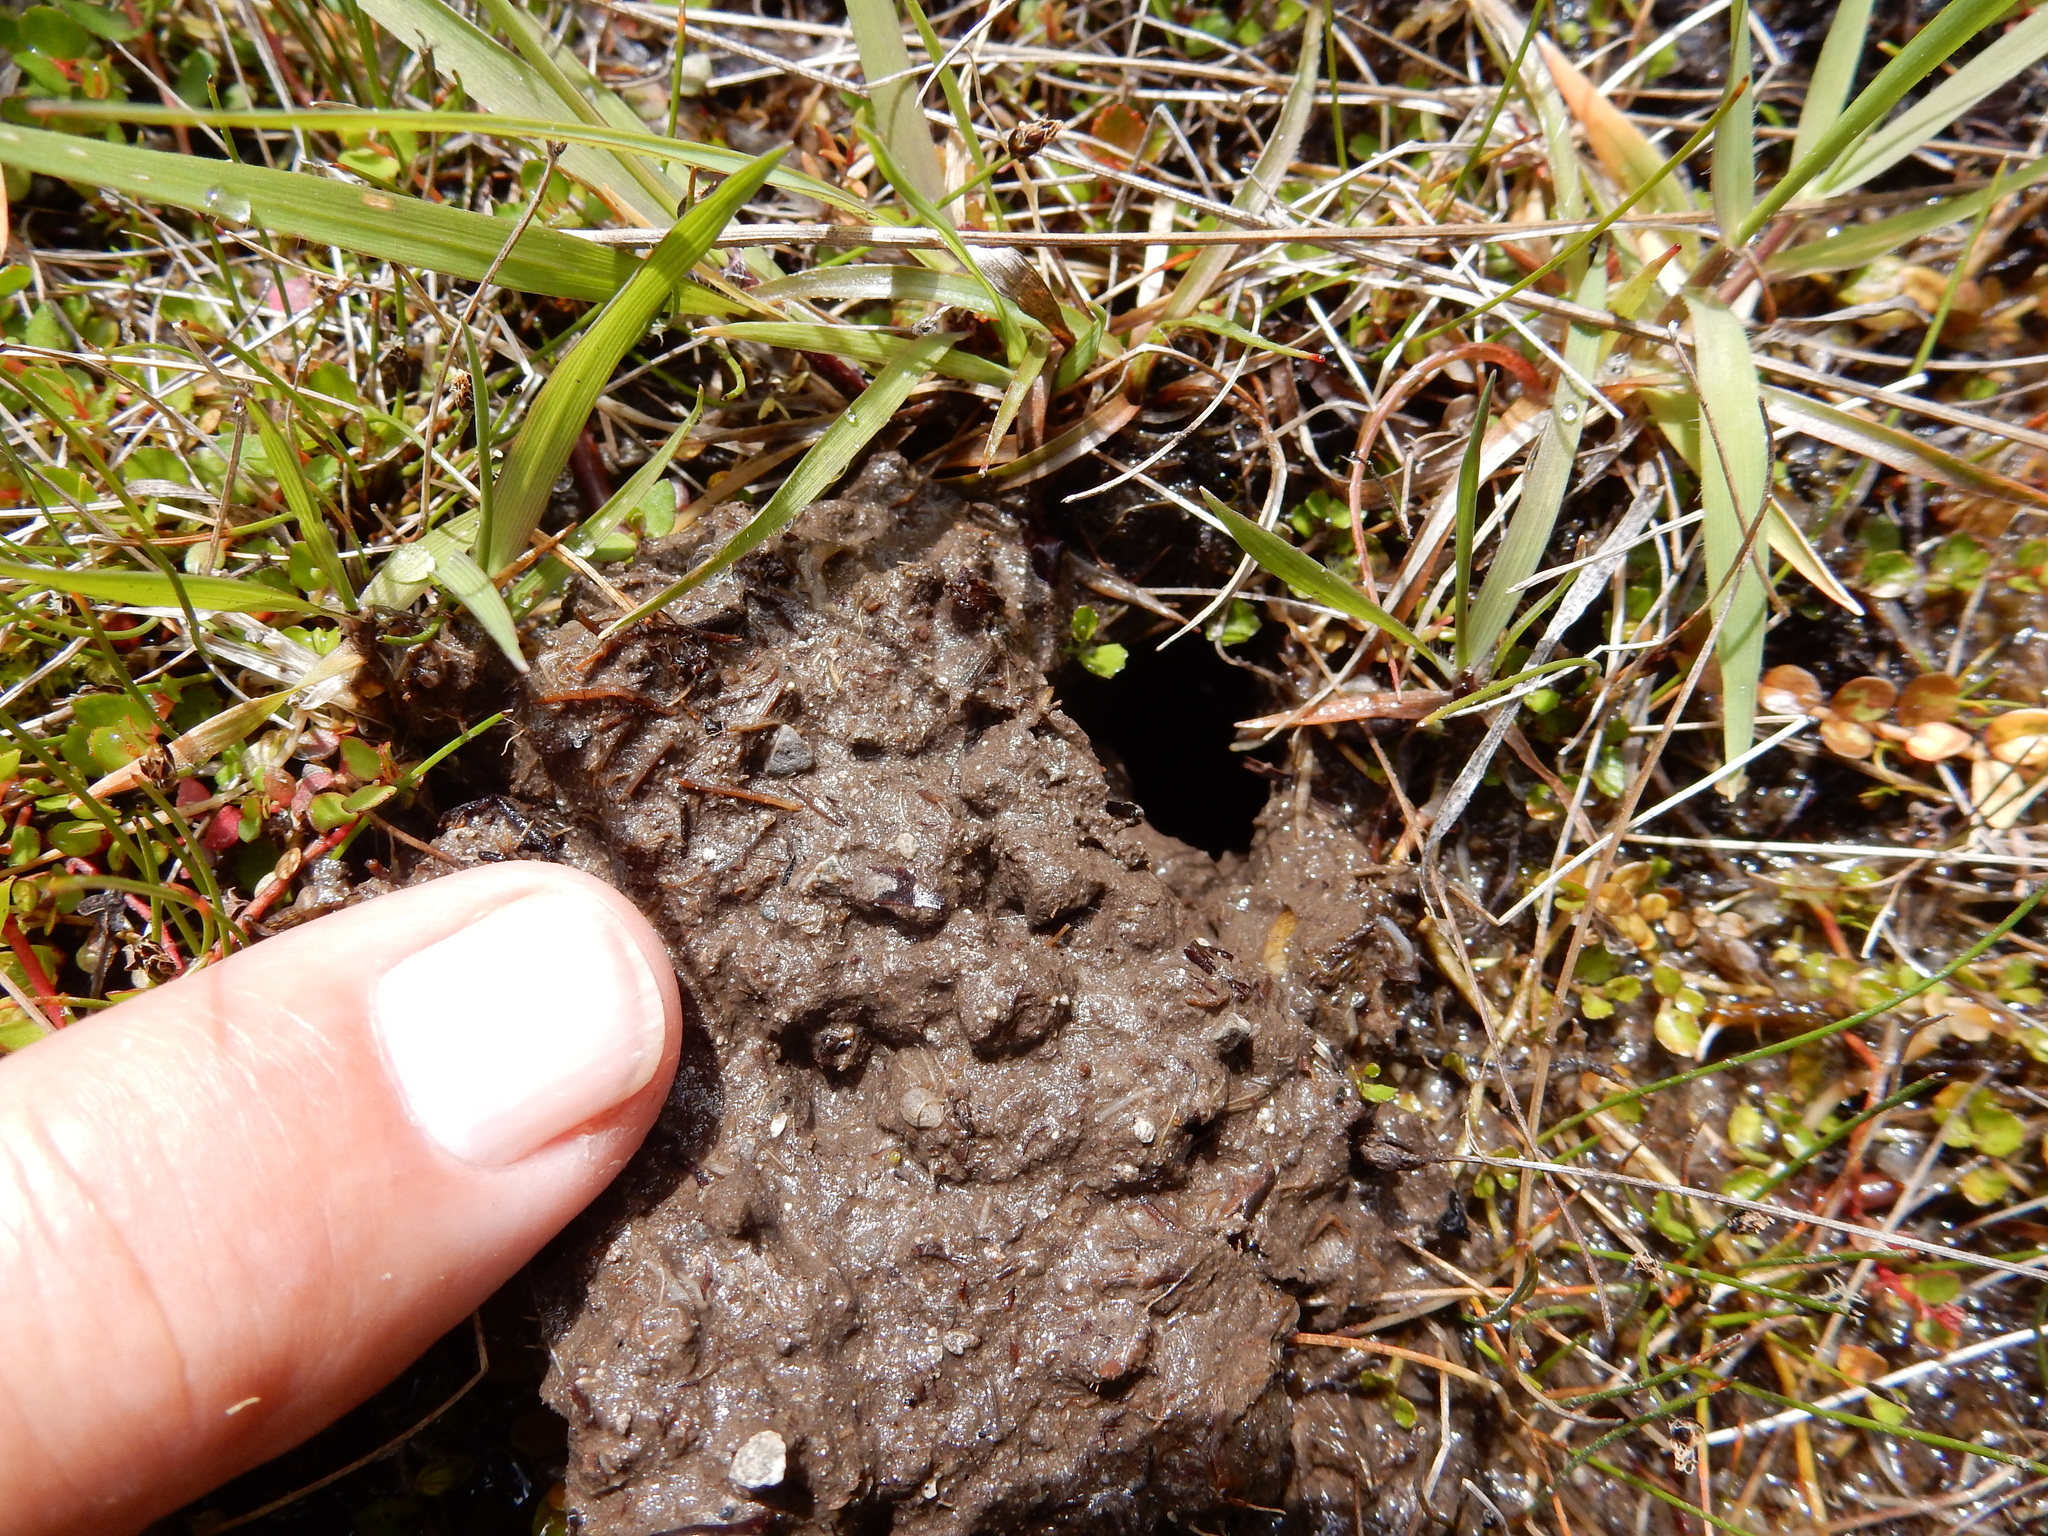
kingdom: Animalia
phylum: Arthropoda
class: Insecta
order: Odonata
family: Petaluridae
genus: Uropetala
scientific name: Uropetala chiltoni
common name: Mountain giant dragonfly
